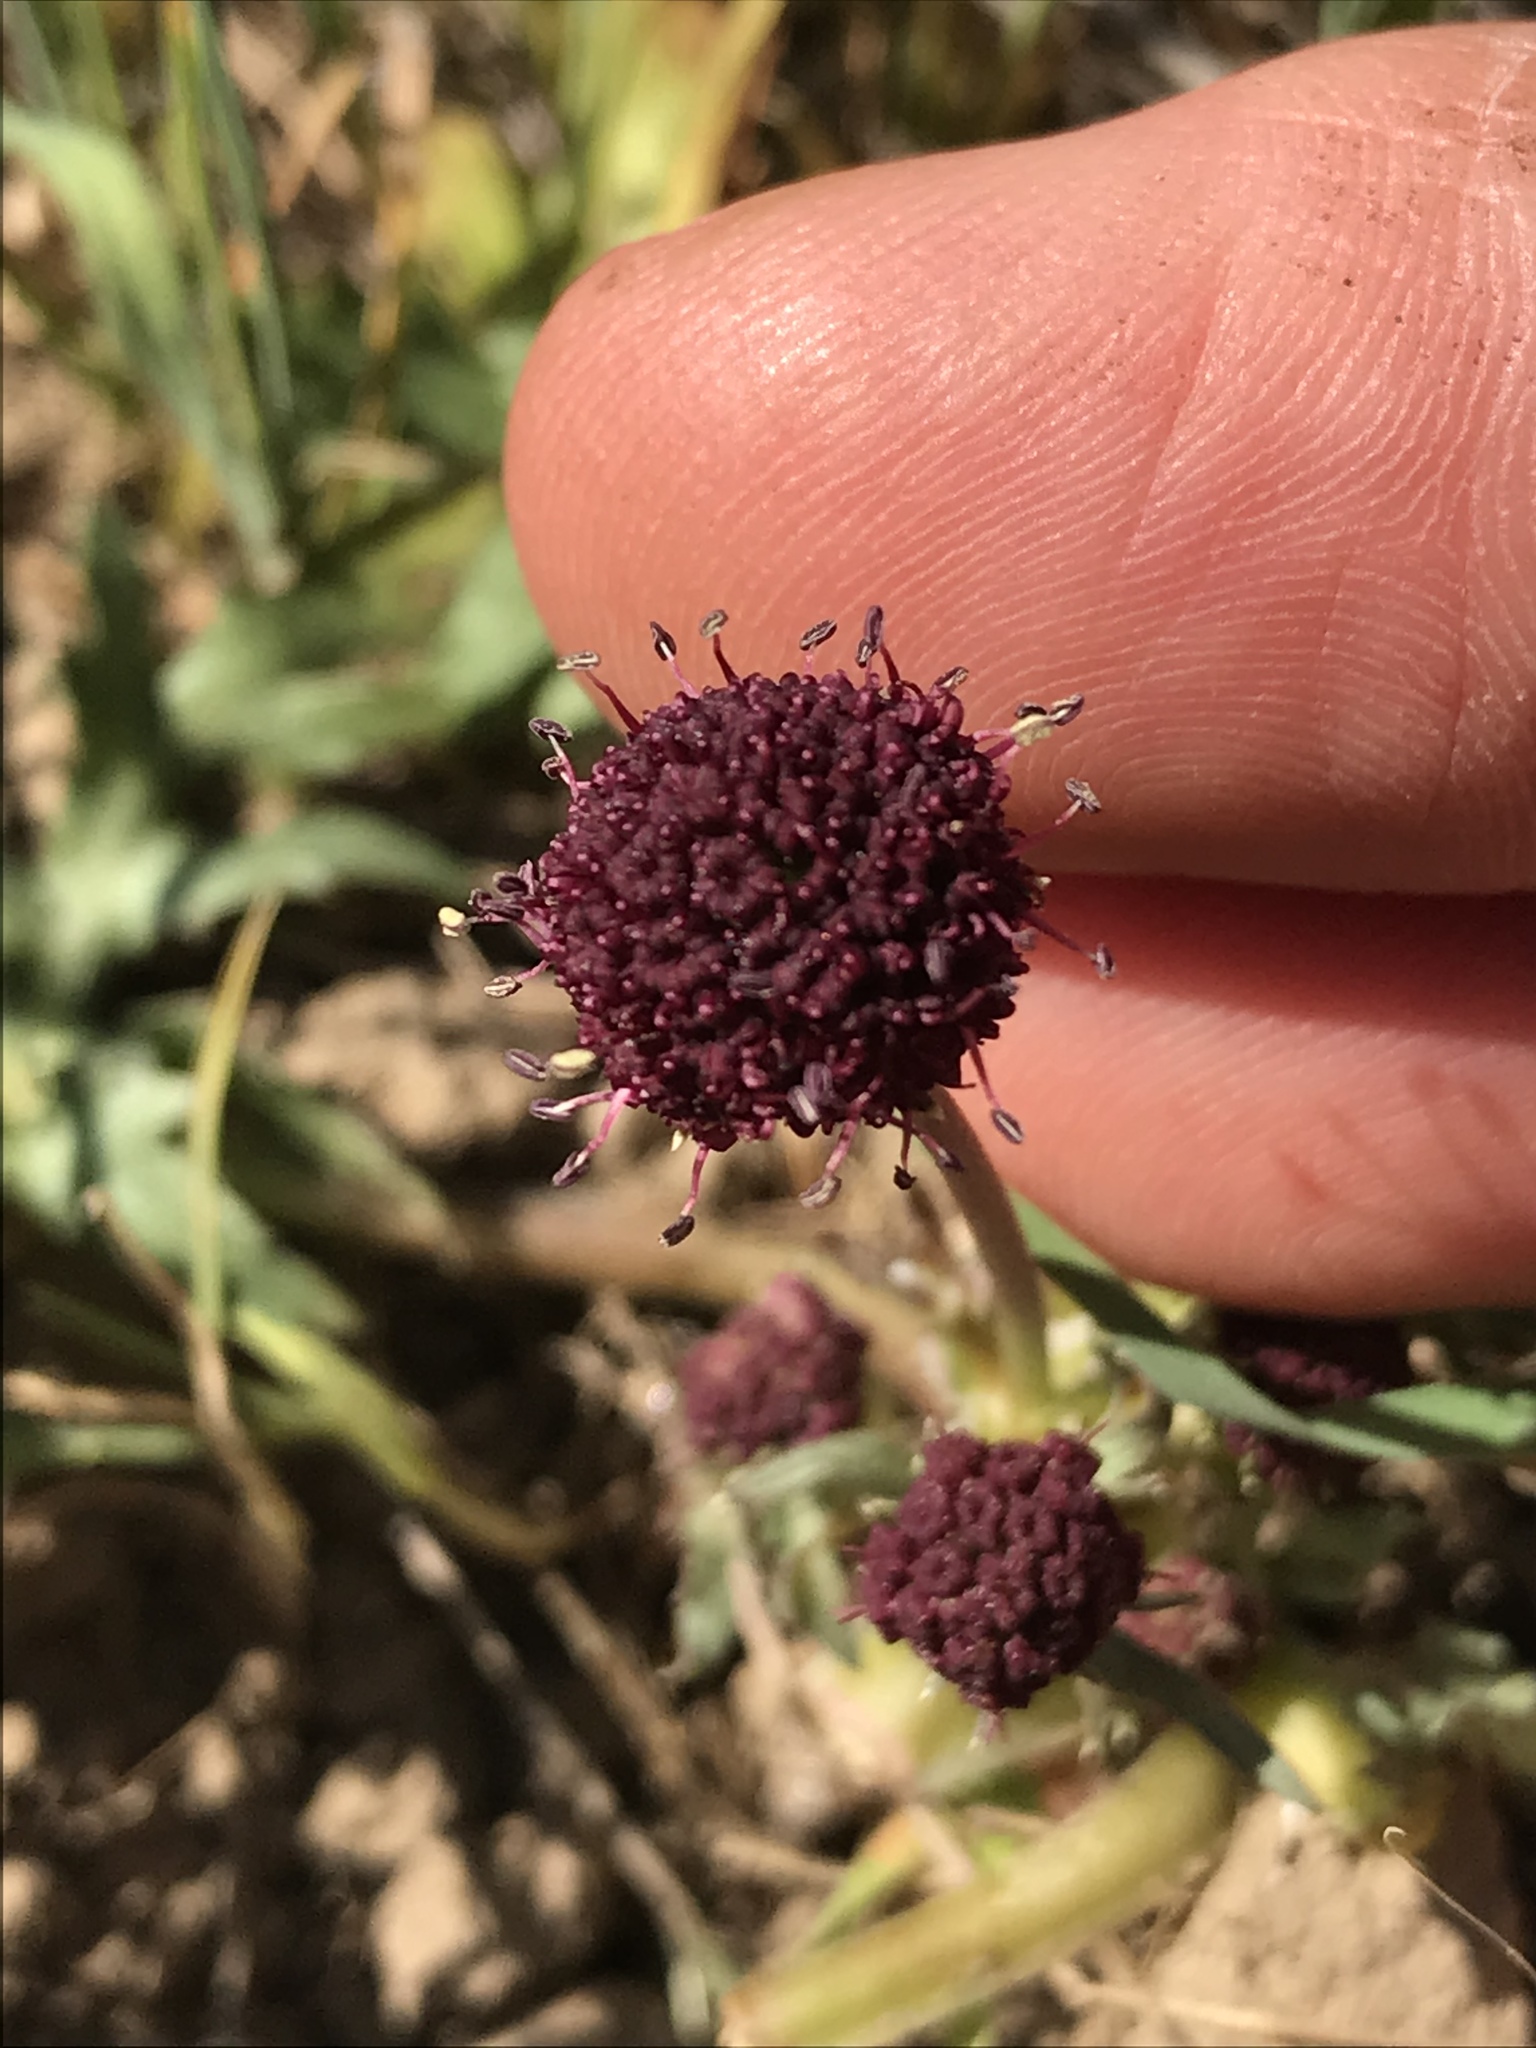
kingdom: Plantae
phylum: Tracheophyta
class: Magnoliopsida
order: Apiales
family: Apiaceae
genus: Sanicula
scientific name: Sanicula bipinnatifida
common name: Shoe-buttons
